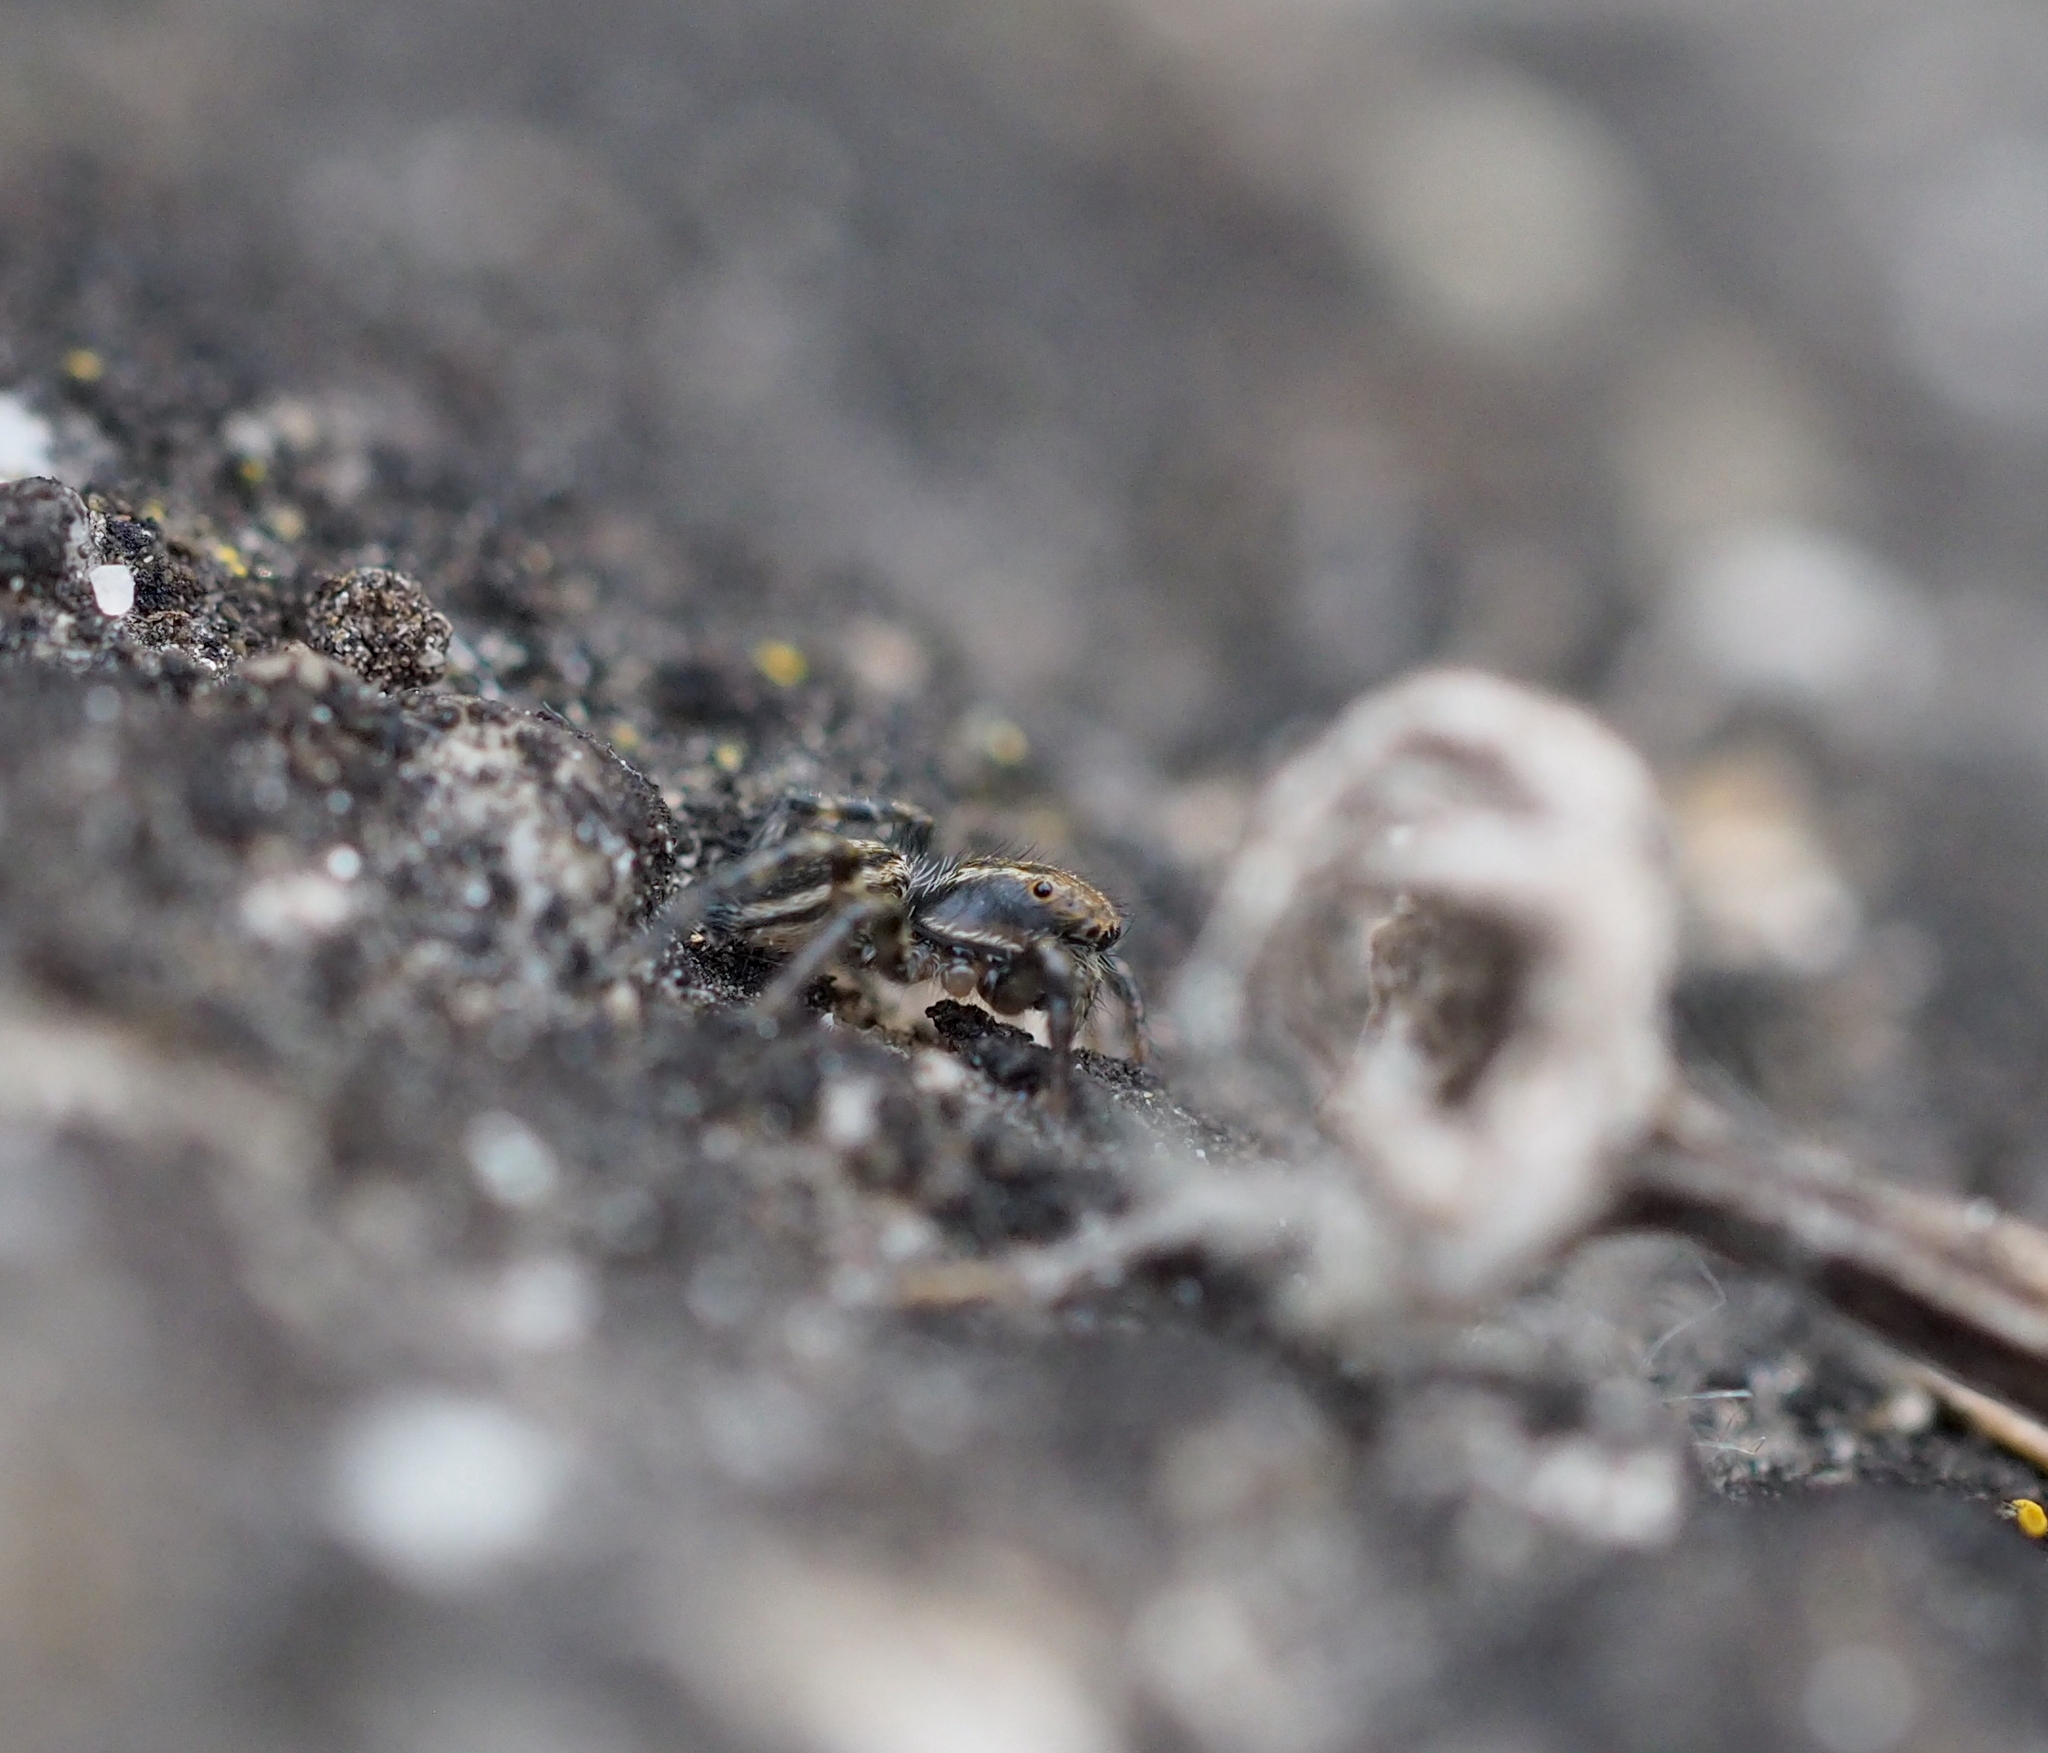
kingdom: Animalia
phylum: Arthropoda
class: Arachnida
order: Araneae
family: Salticidae
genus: Phlegra
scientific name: Phlegra fasciata
